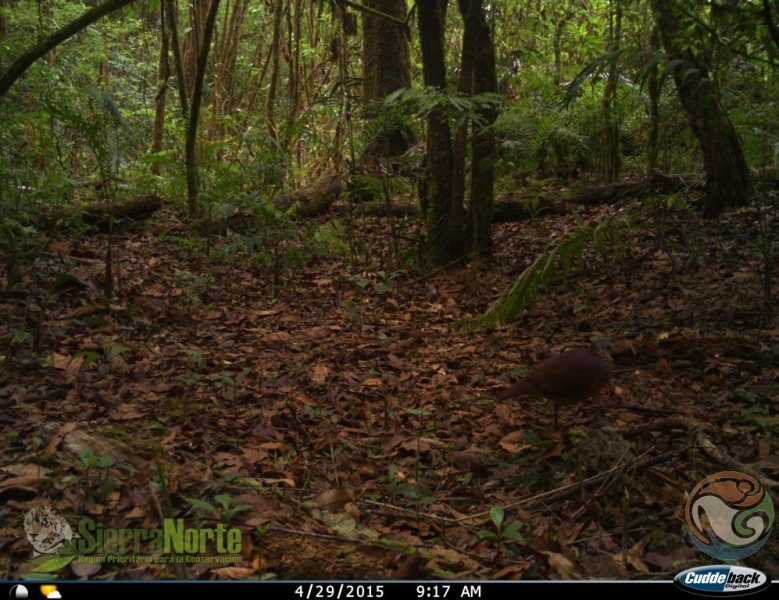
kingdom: Animalia
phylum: Chordata
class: Aves
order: Columbiformes
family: Columbidae
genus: Zentrygon
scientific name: Zentrygon albifacies
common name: White-faced quail-dove
